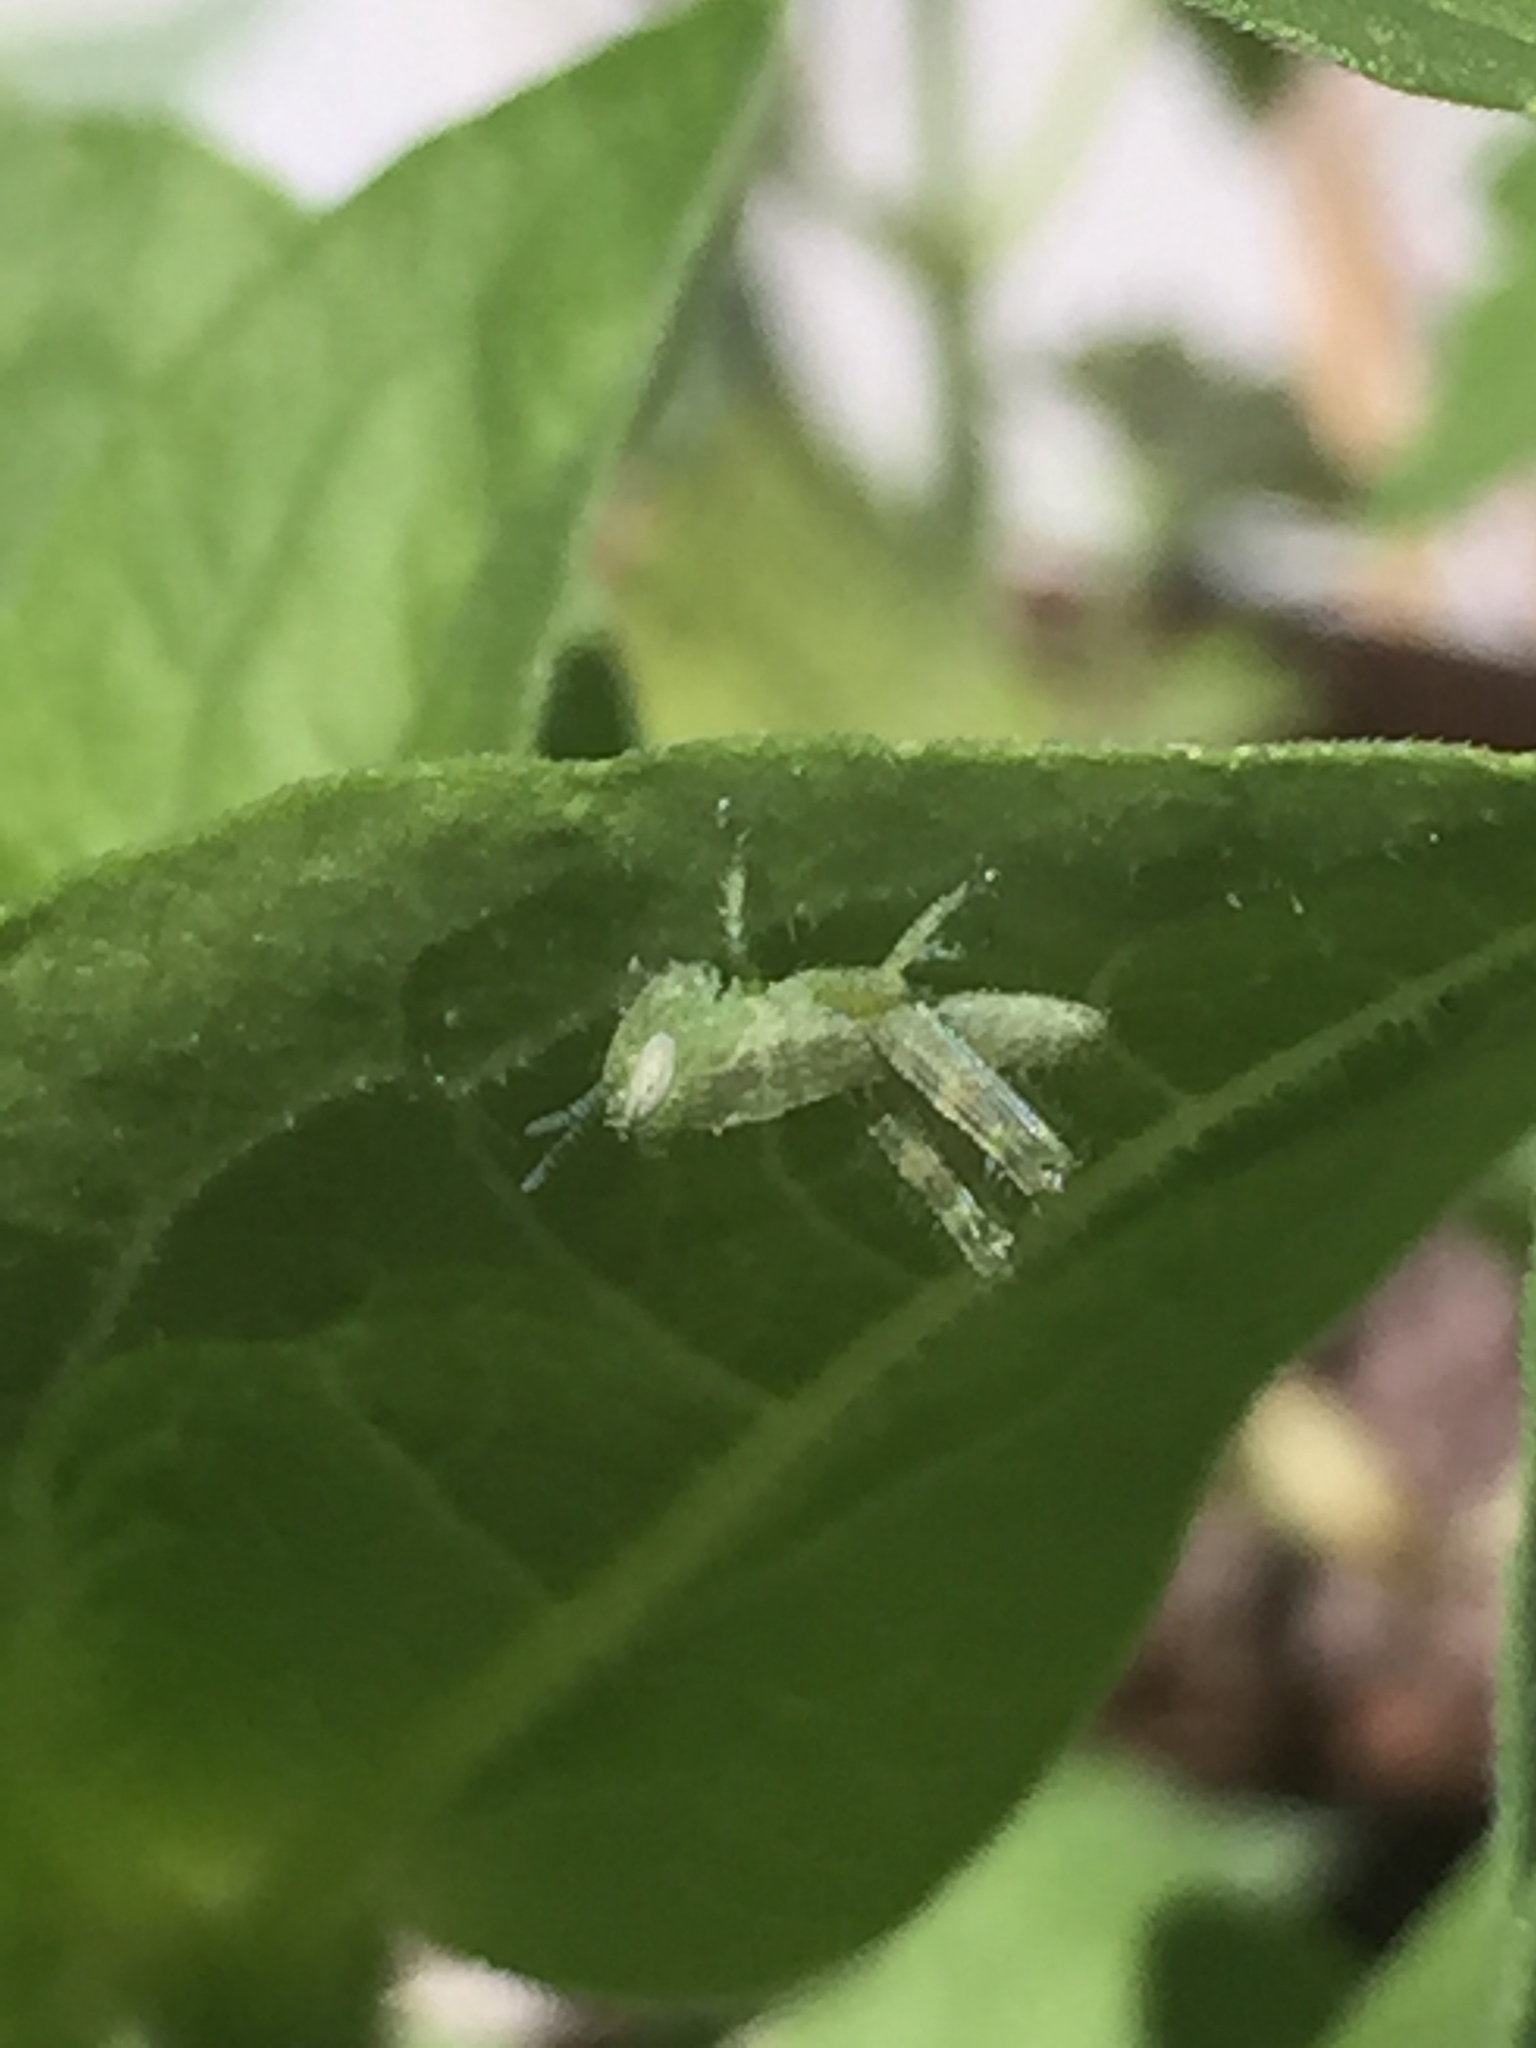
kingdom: Animalia
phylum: Arthropoda
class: Insecta
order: Orthoptera
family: Acrididae
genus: Schistocerca
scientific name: Schistocerca nitens
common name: Vagrant grasshopper
